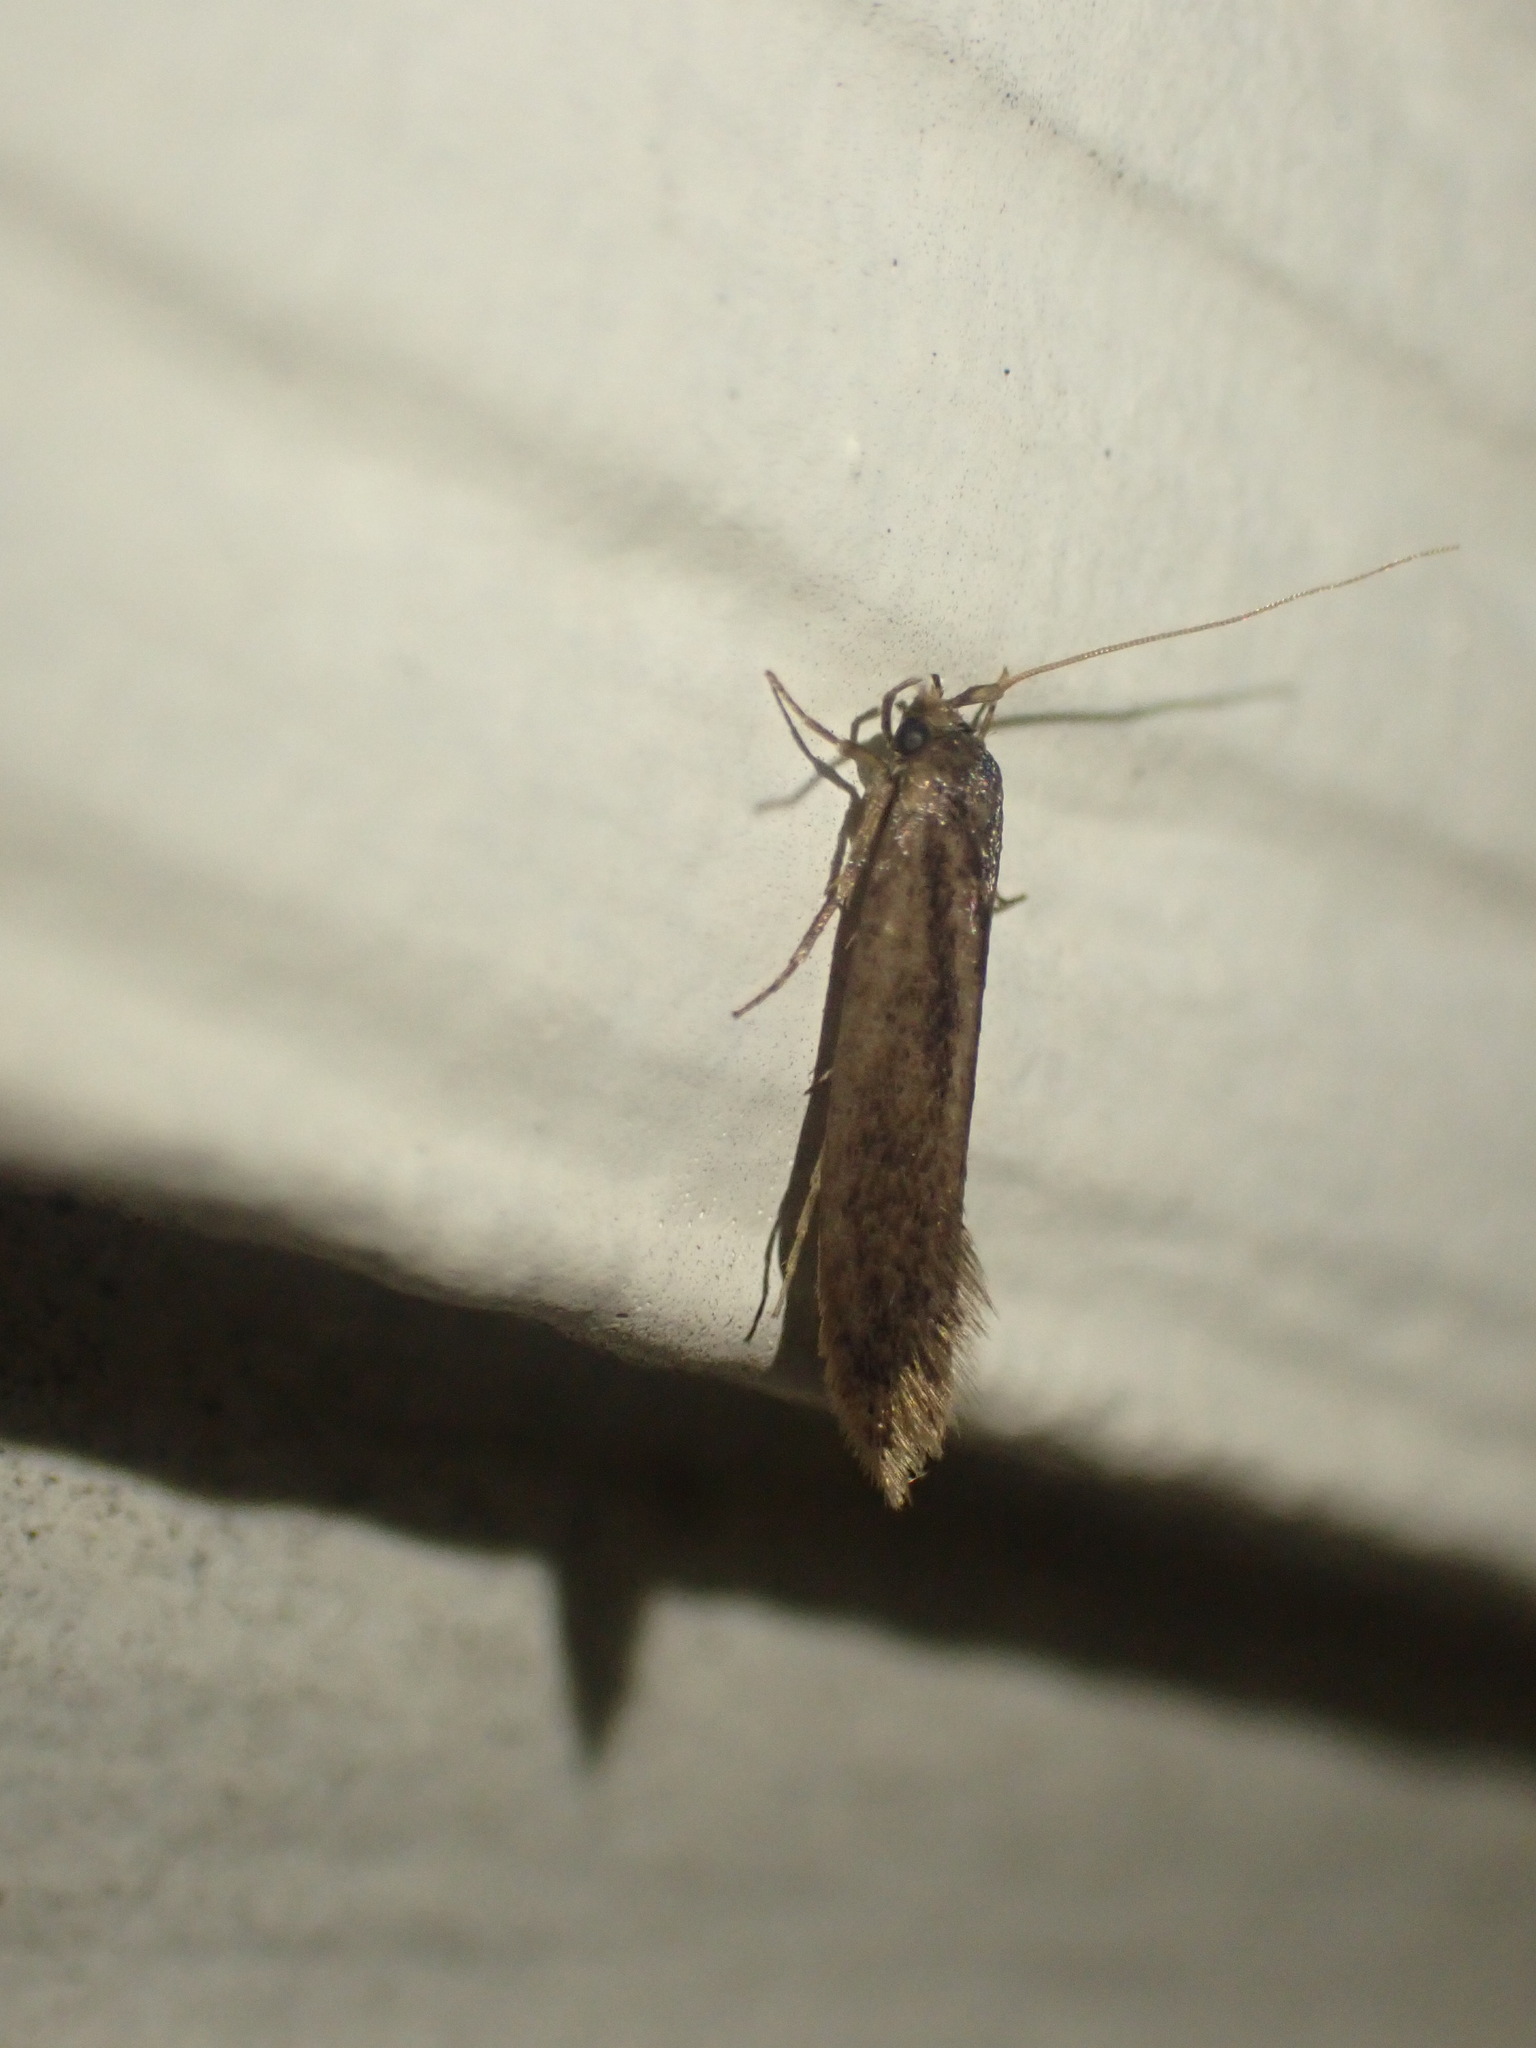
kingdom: Animalia
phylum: Arthropoda
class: Insecta
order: Lepidoptera
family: Tineidae
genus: Opogona
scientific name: Opogona omoscopa
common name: Moth
